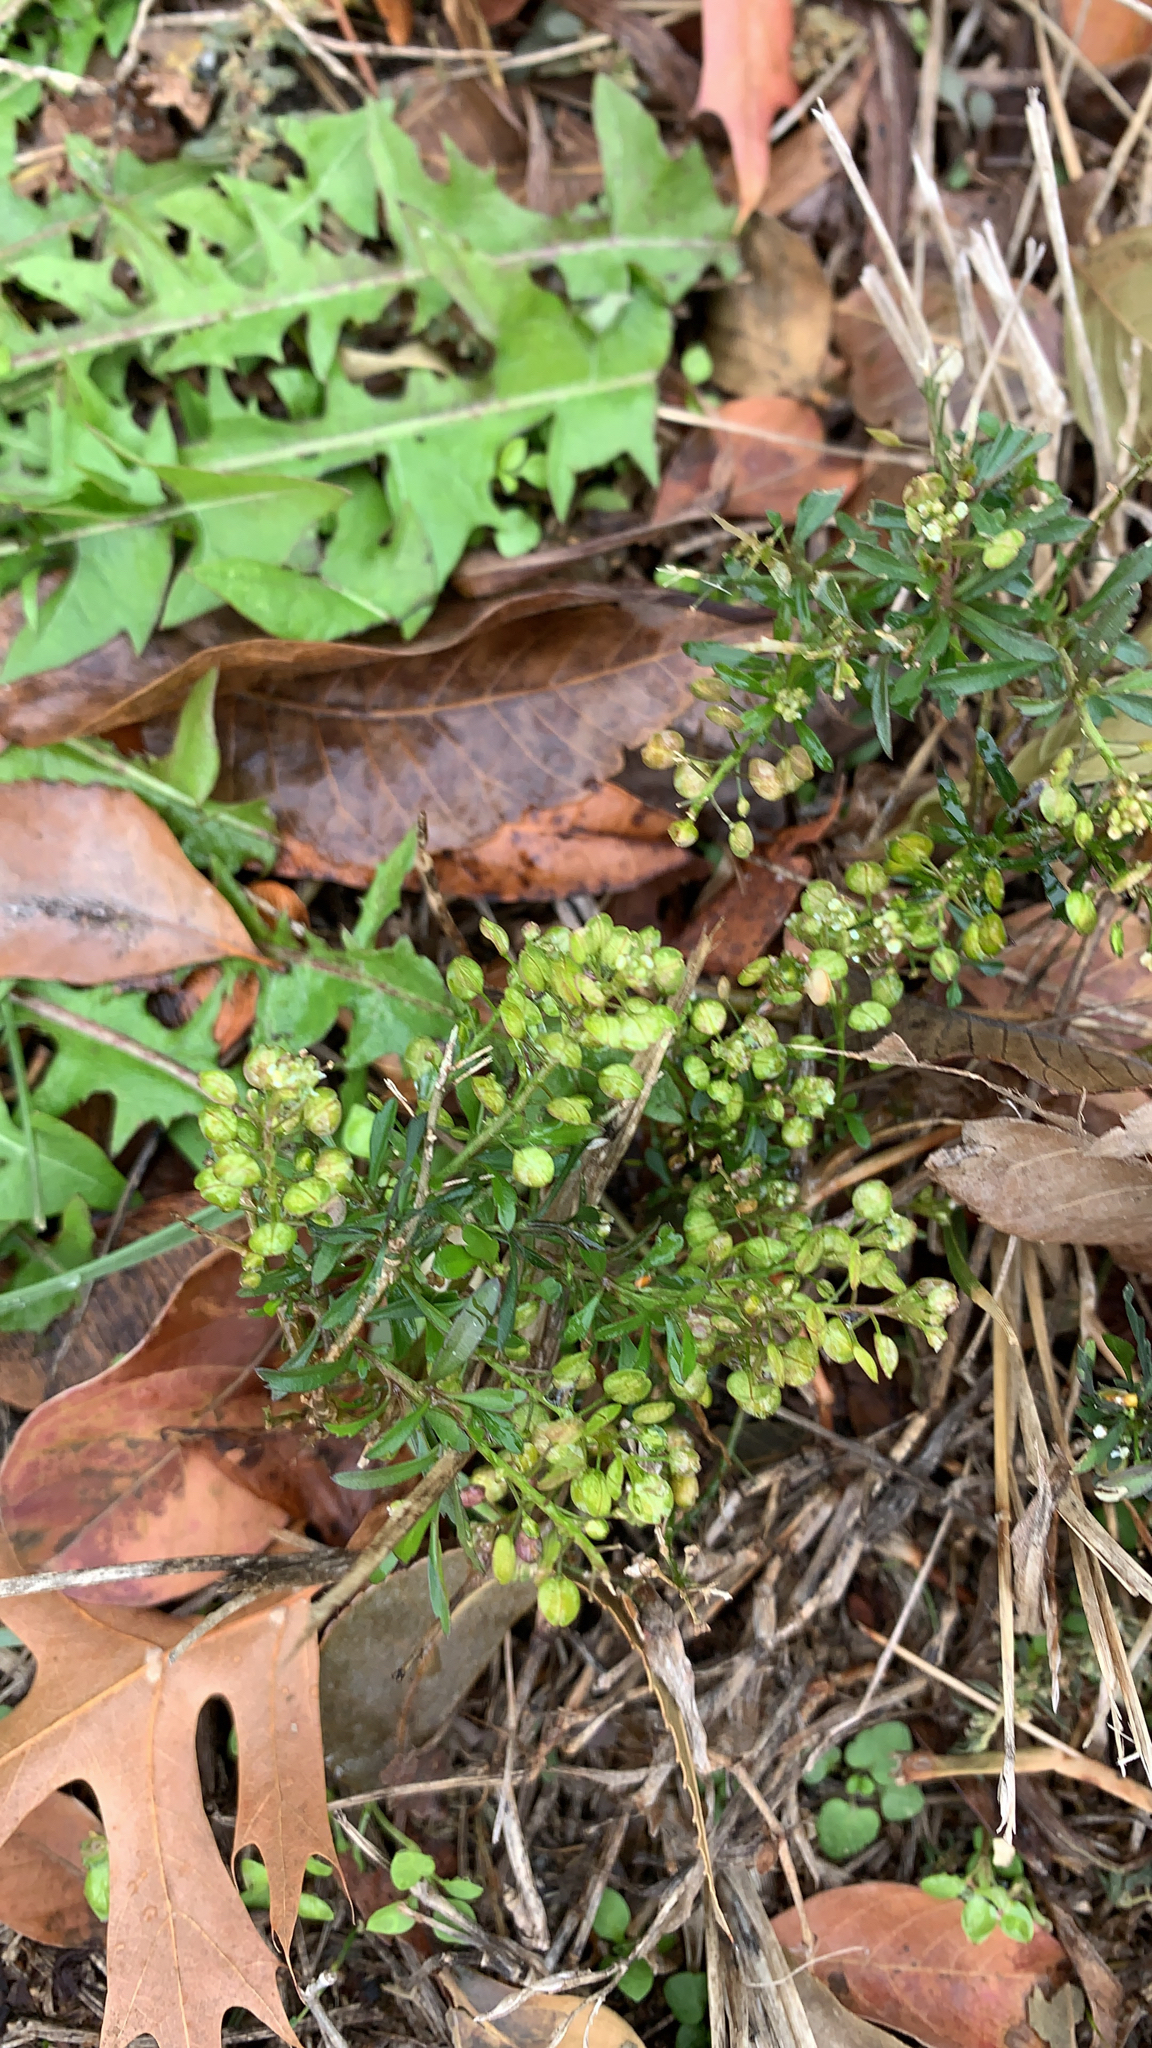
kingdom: Plantae
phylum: Tracheophyta
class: Magnoliopsida
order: Brassicales
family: Brassicaceae
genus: Lepidium
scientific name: Lepidium virginicum
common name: Least pepperwort
